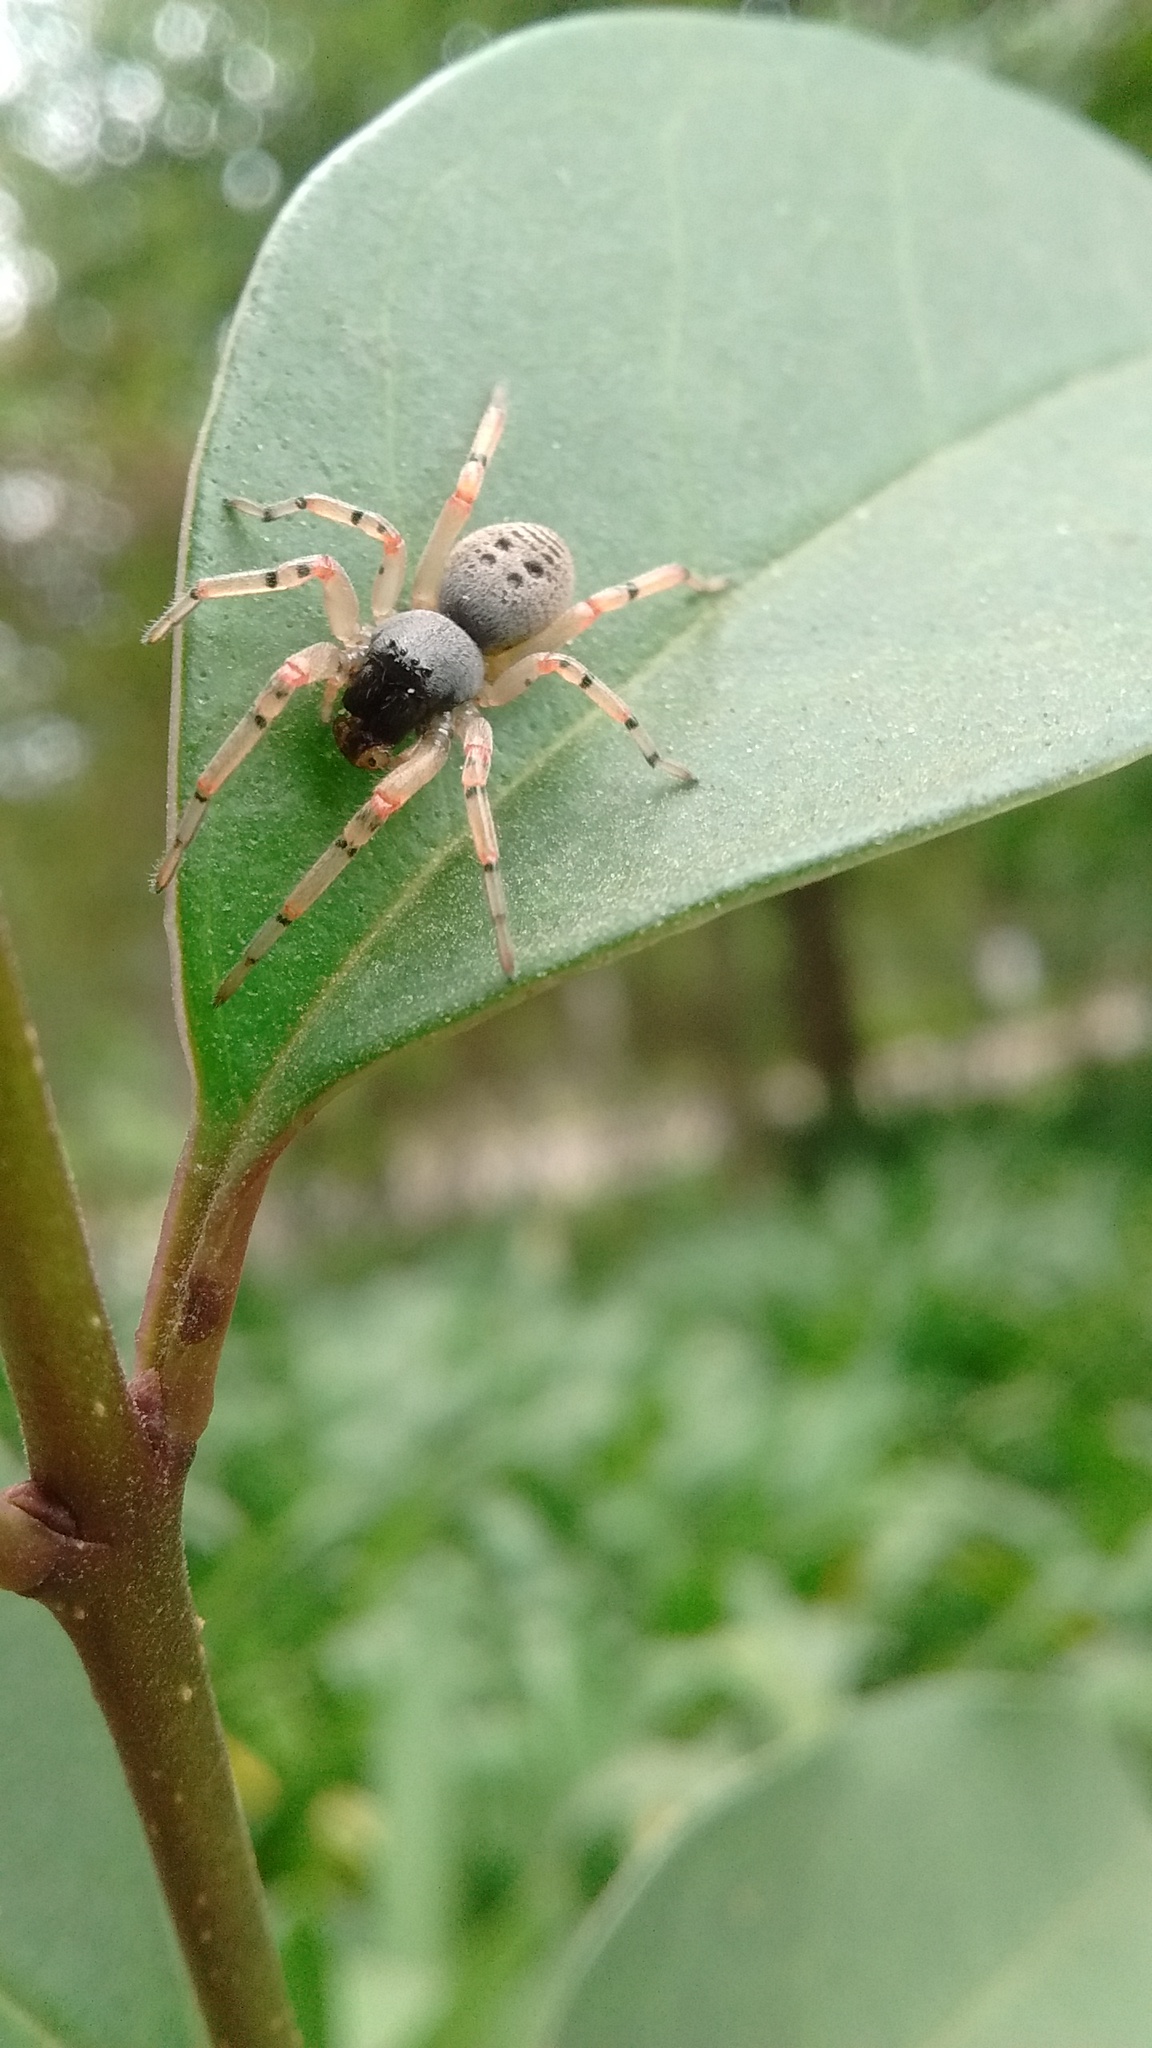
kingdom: Animalia
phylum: Arthropoda
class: Arachnida
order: Araneae
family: Trachelidae
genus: Trachelopachys
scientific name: Trachelopachys
